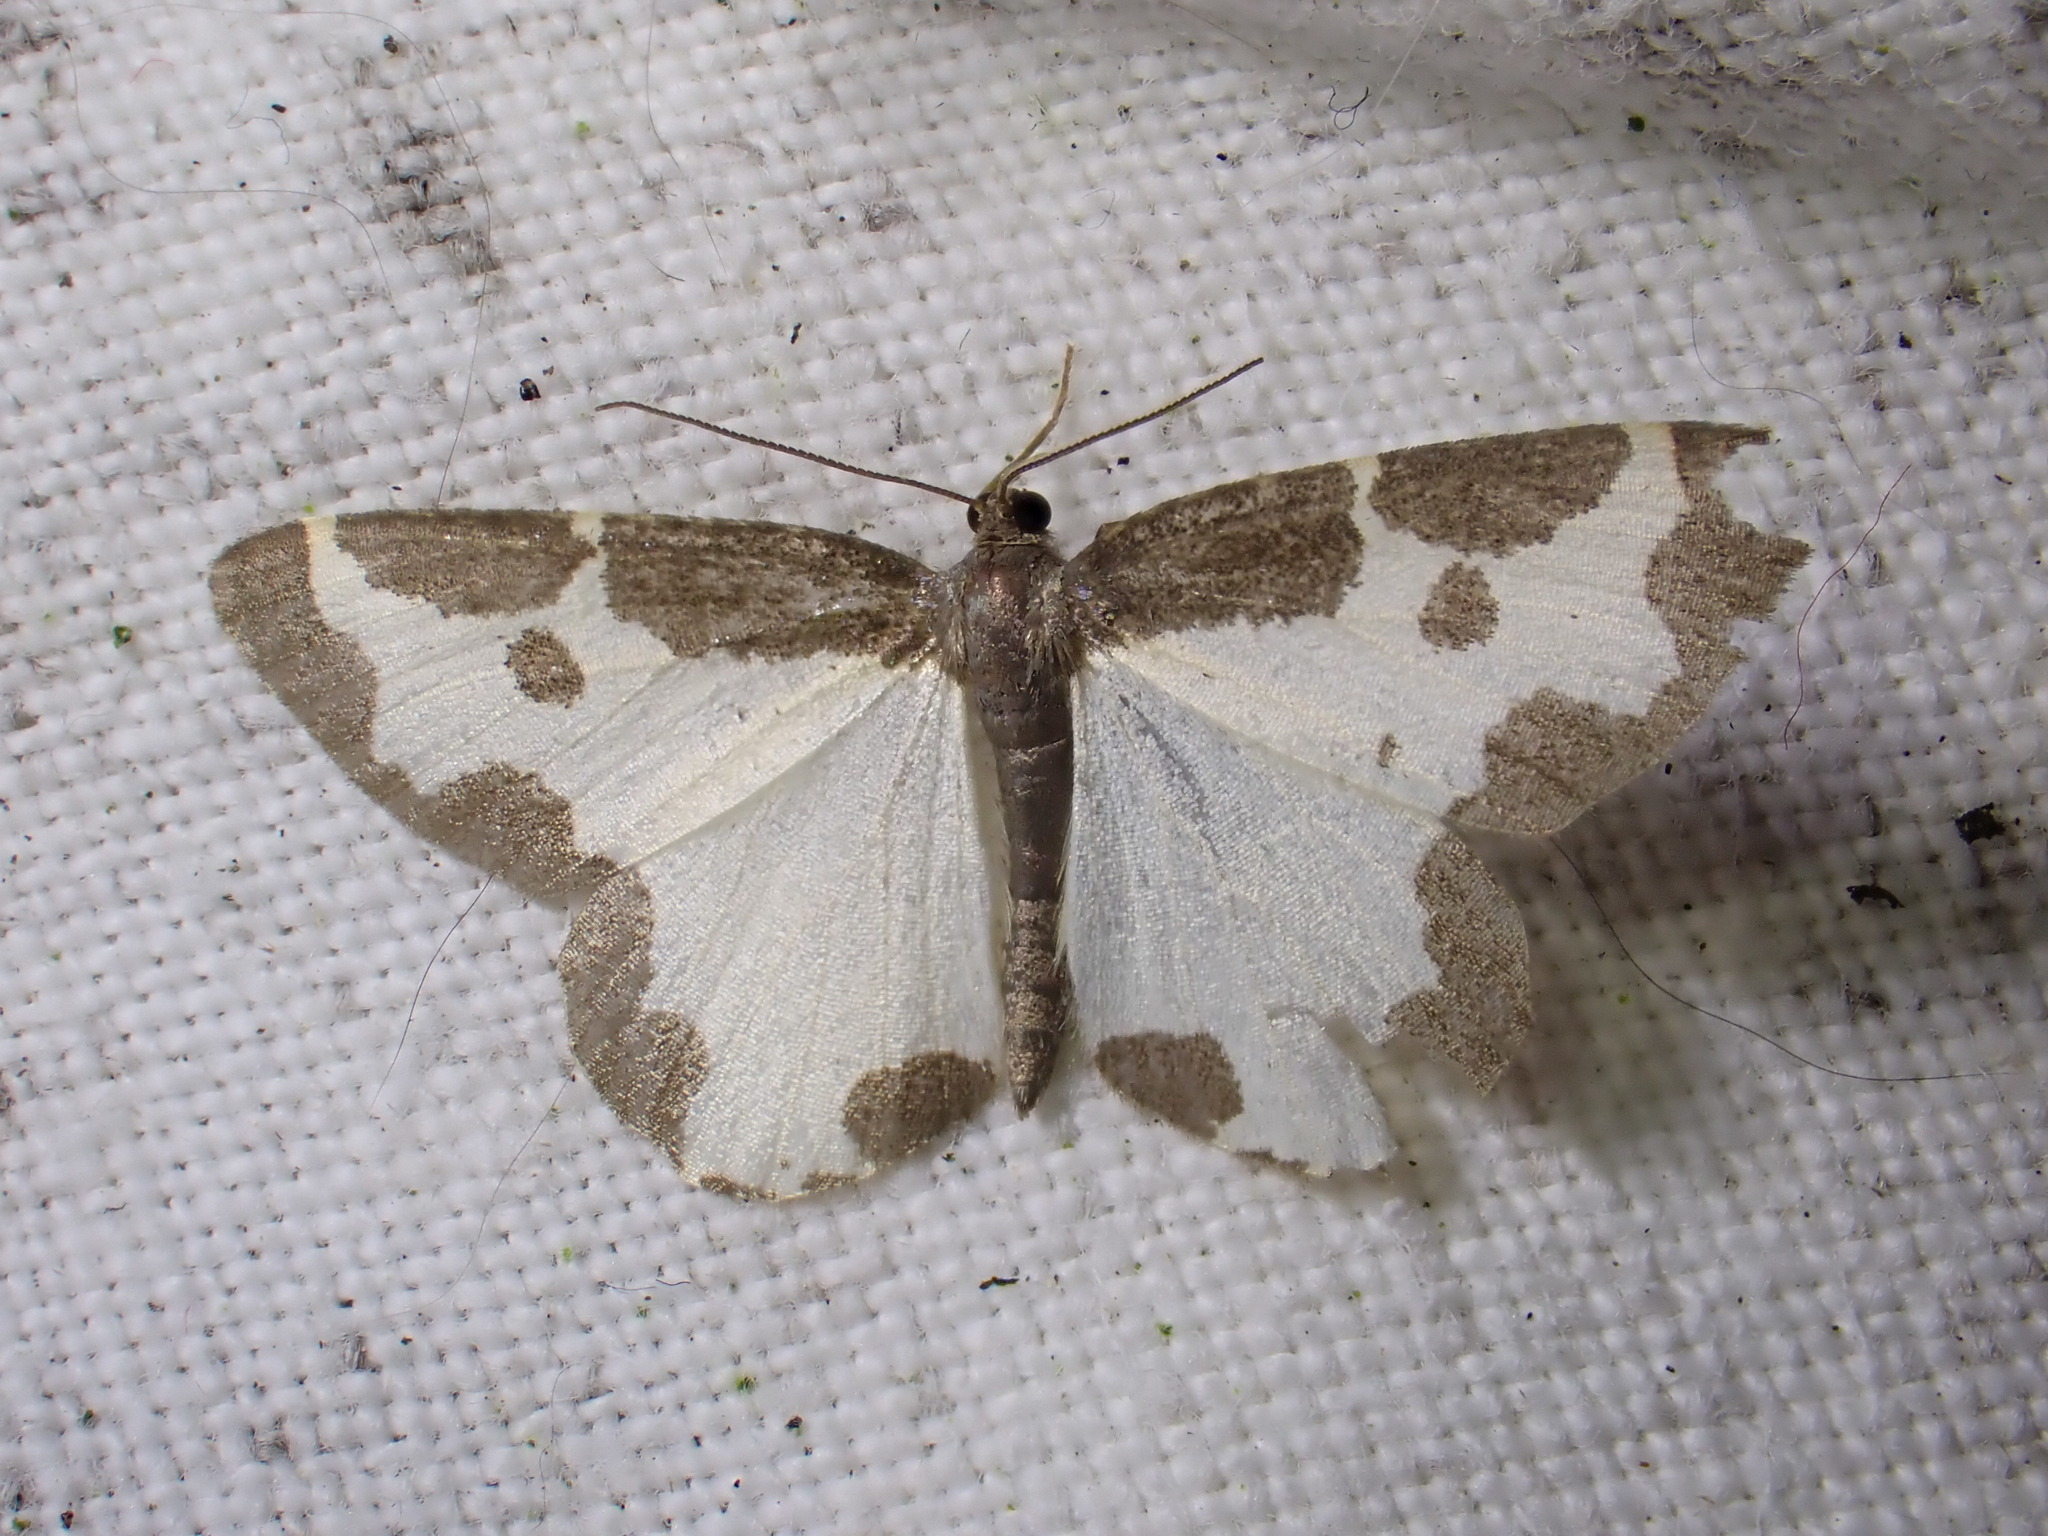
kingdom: Animalia
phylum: Arthropoda
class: Insecta
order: Lepidoptera
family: Geometridae
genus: Lomaspilis
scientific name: Lomaspilis marginata
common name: Clouded border
